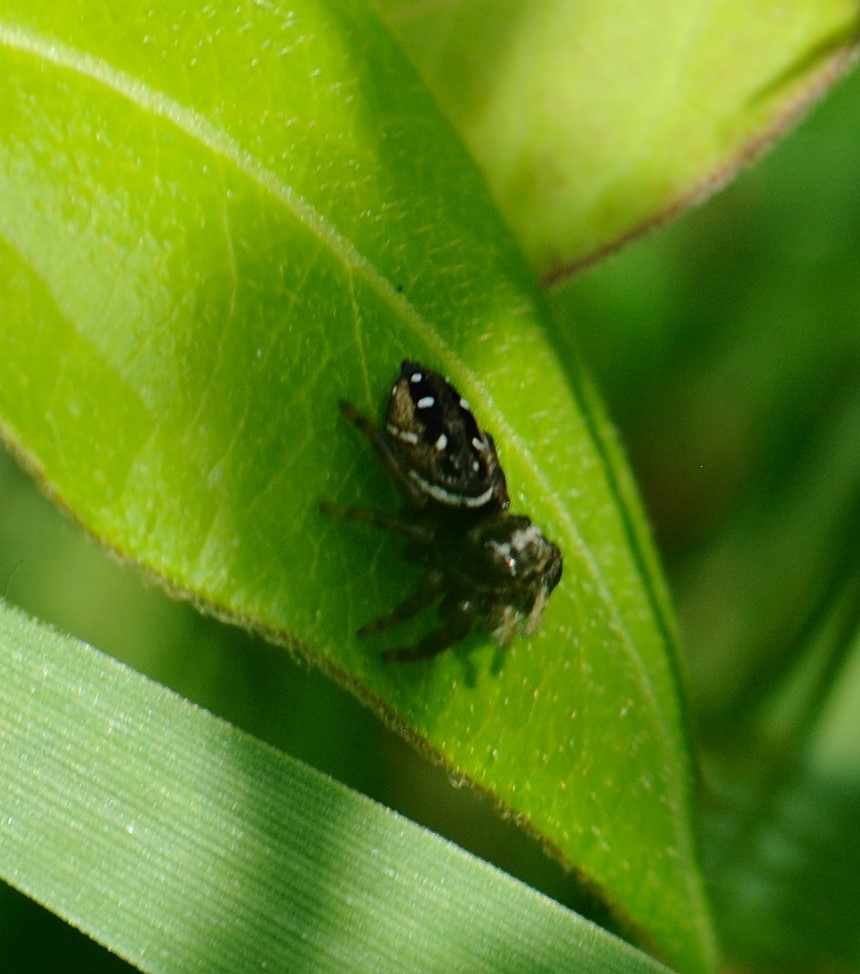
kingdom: Animalia
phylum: Arthropoda
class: Arachnida
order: Araneae
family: Salticidae
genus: Phidippus
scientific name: Phidippus clarus
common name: Brilliant jumping spider
